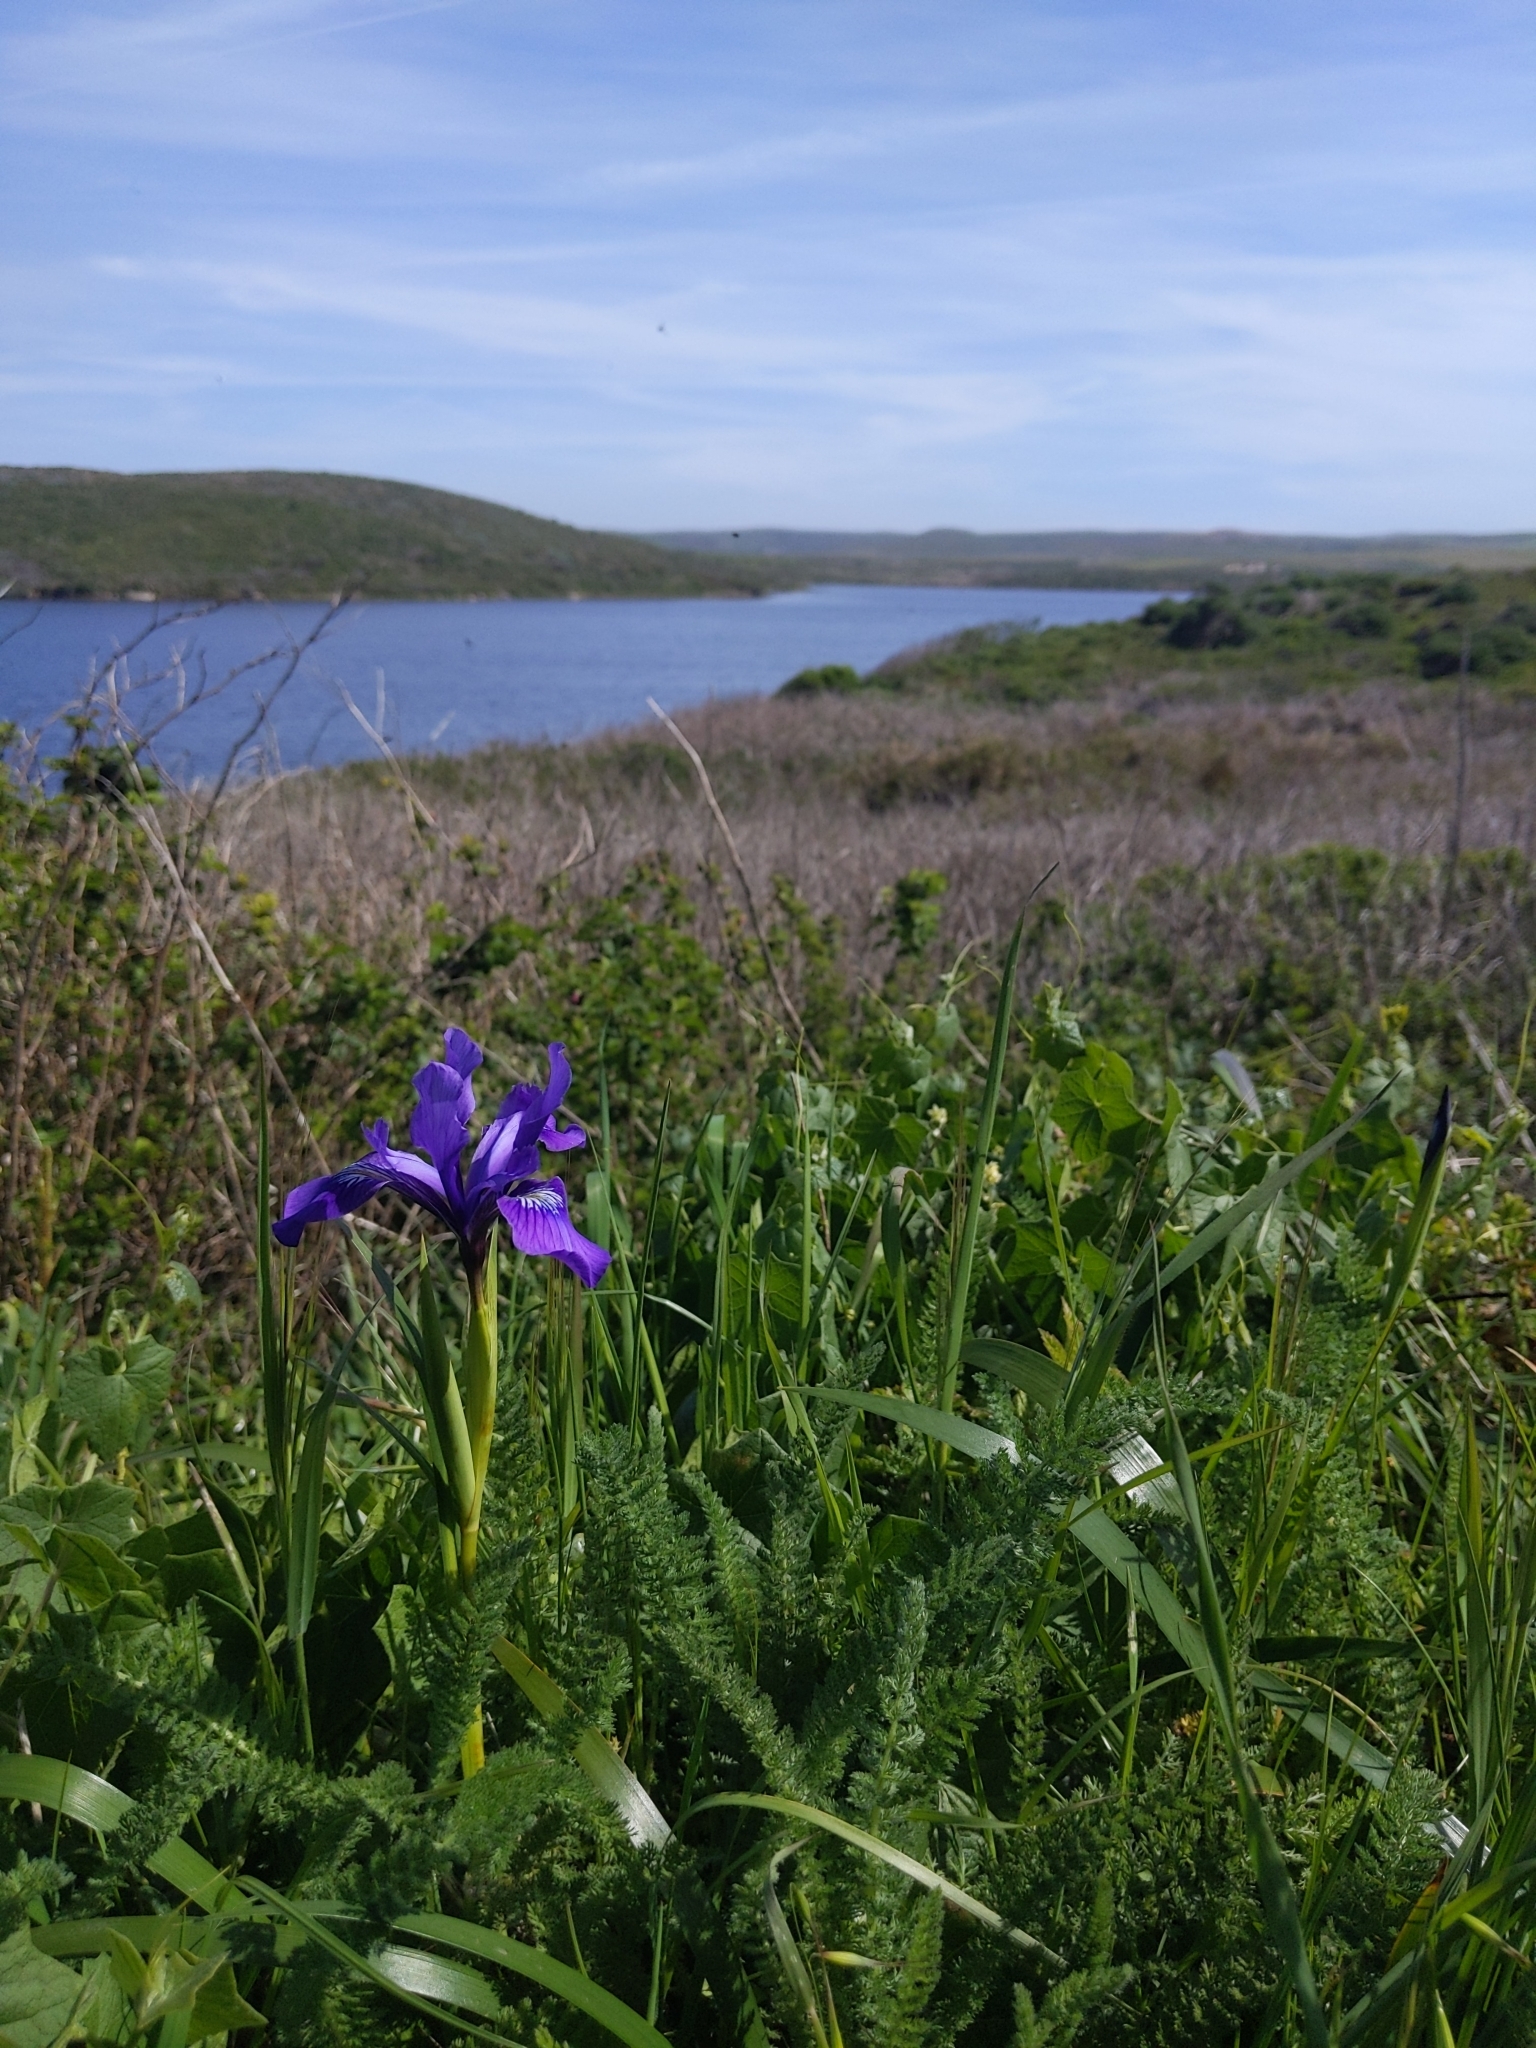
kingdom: Plantae
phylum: Tracheophyta
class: Liliopsida
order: Asparagales
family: Iridaceae
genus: Iris
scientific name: Iris douglasiana
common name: Marin iris
